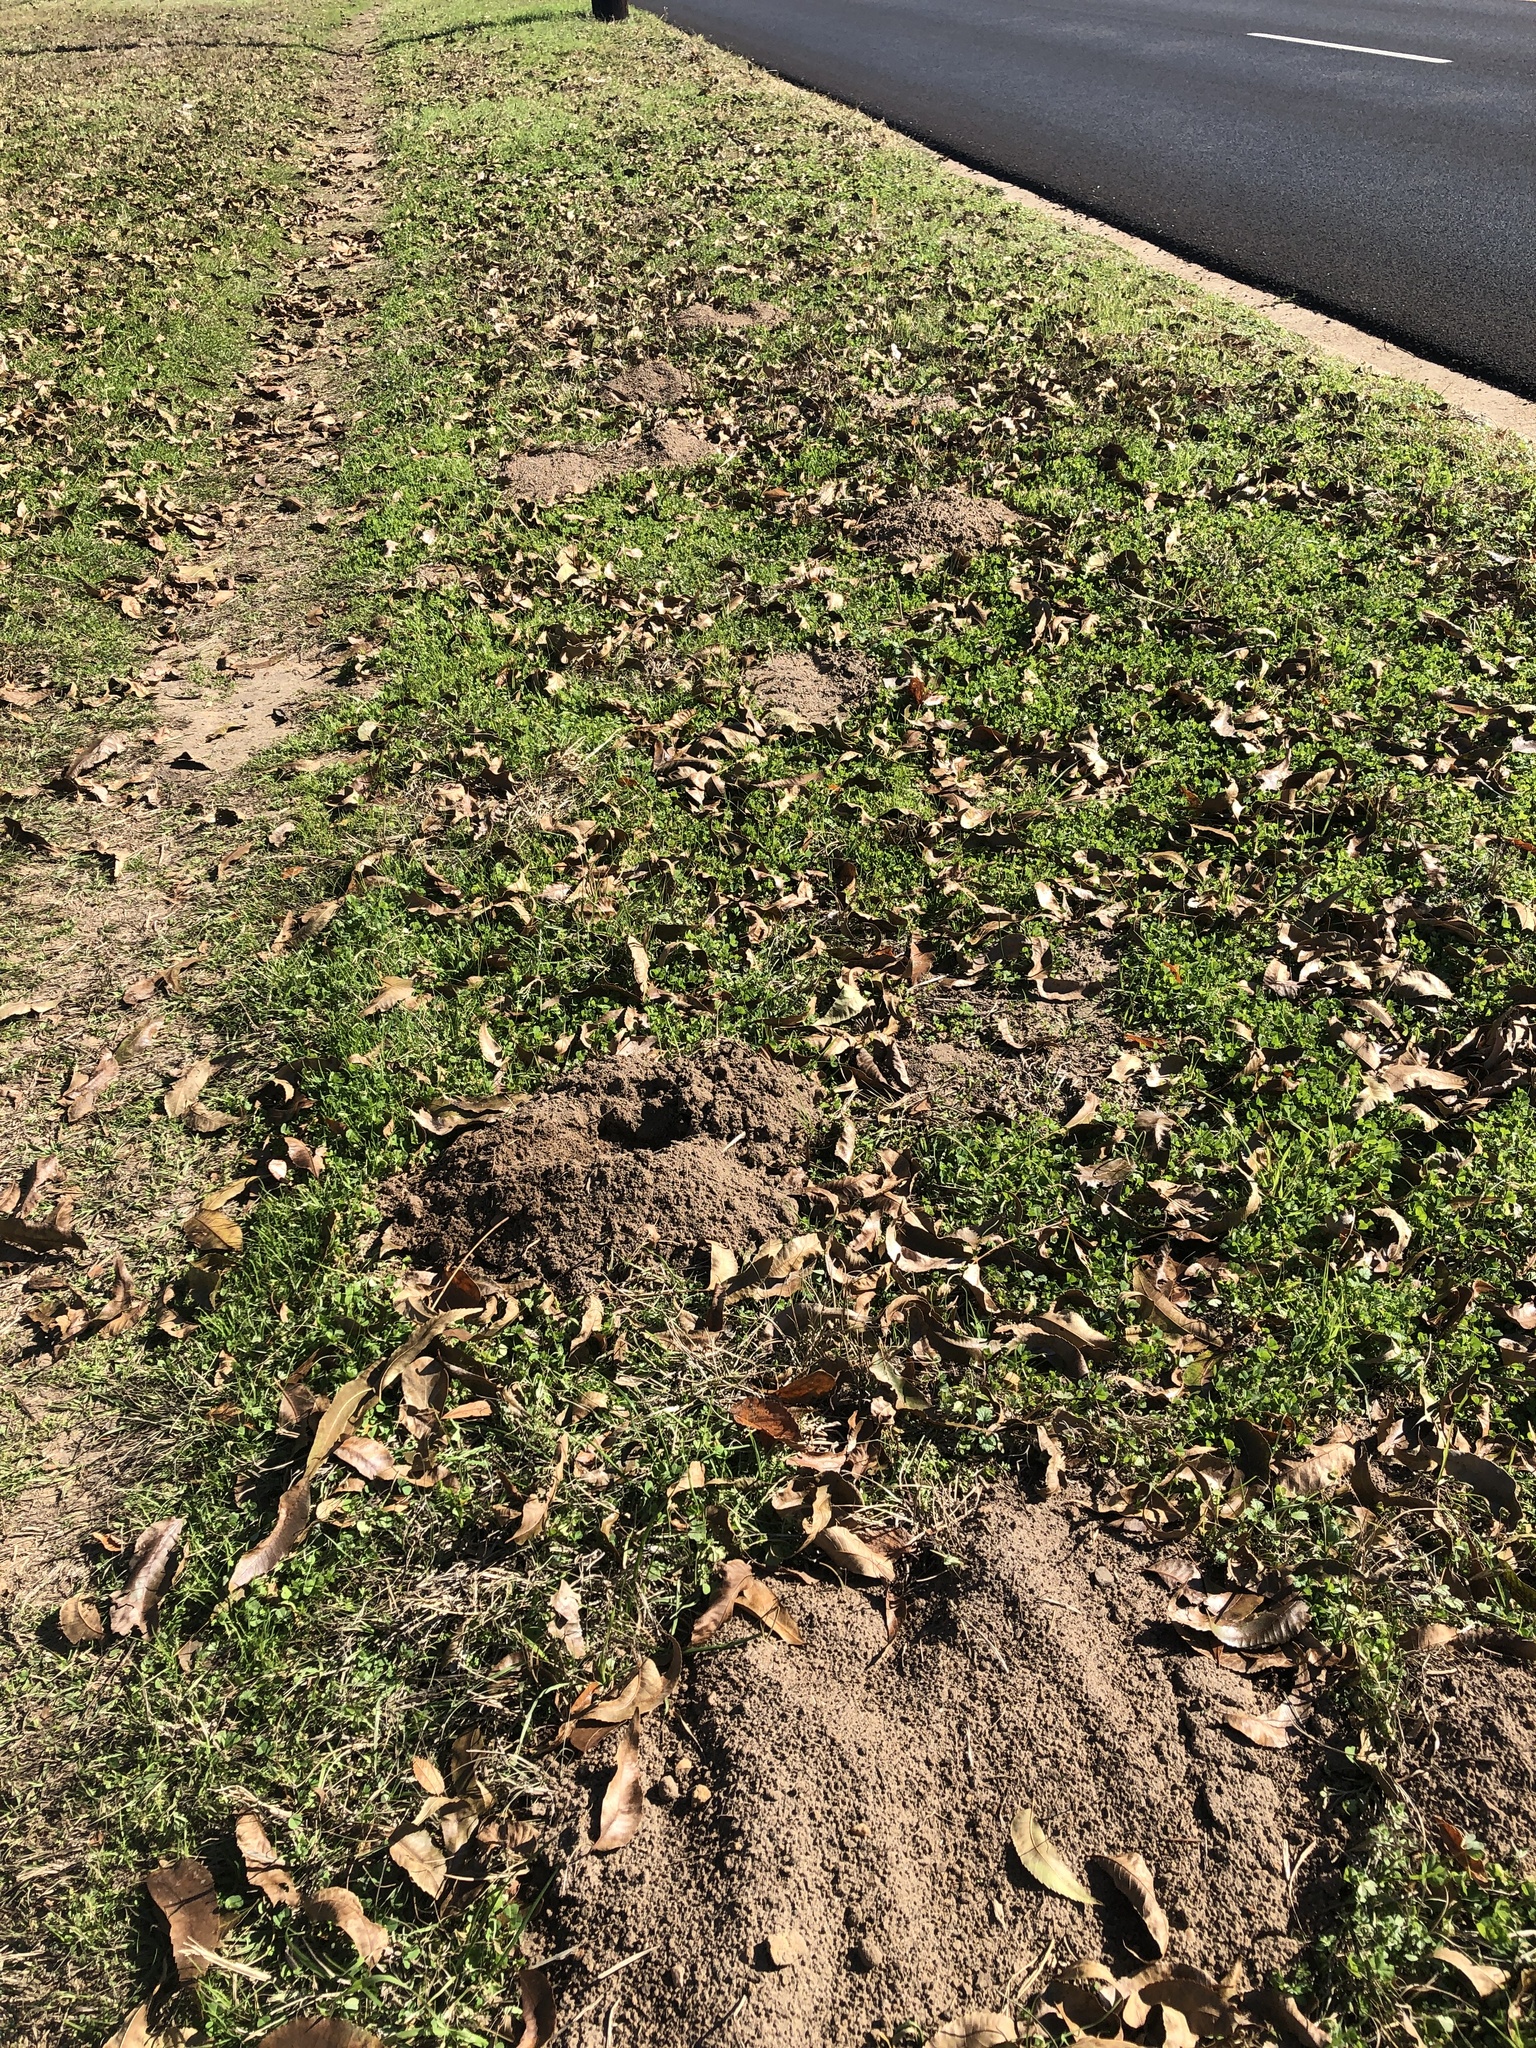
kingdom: Animalia
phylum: Chordata
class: Mammalia
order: Rodentia
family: Geomyidae
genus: Geomys
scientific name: Geomys breviceps
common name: Baird's pocket gopher
